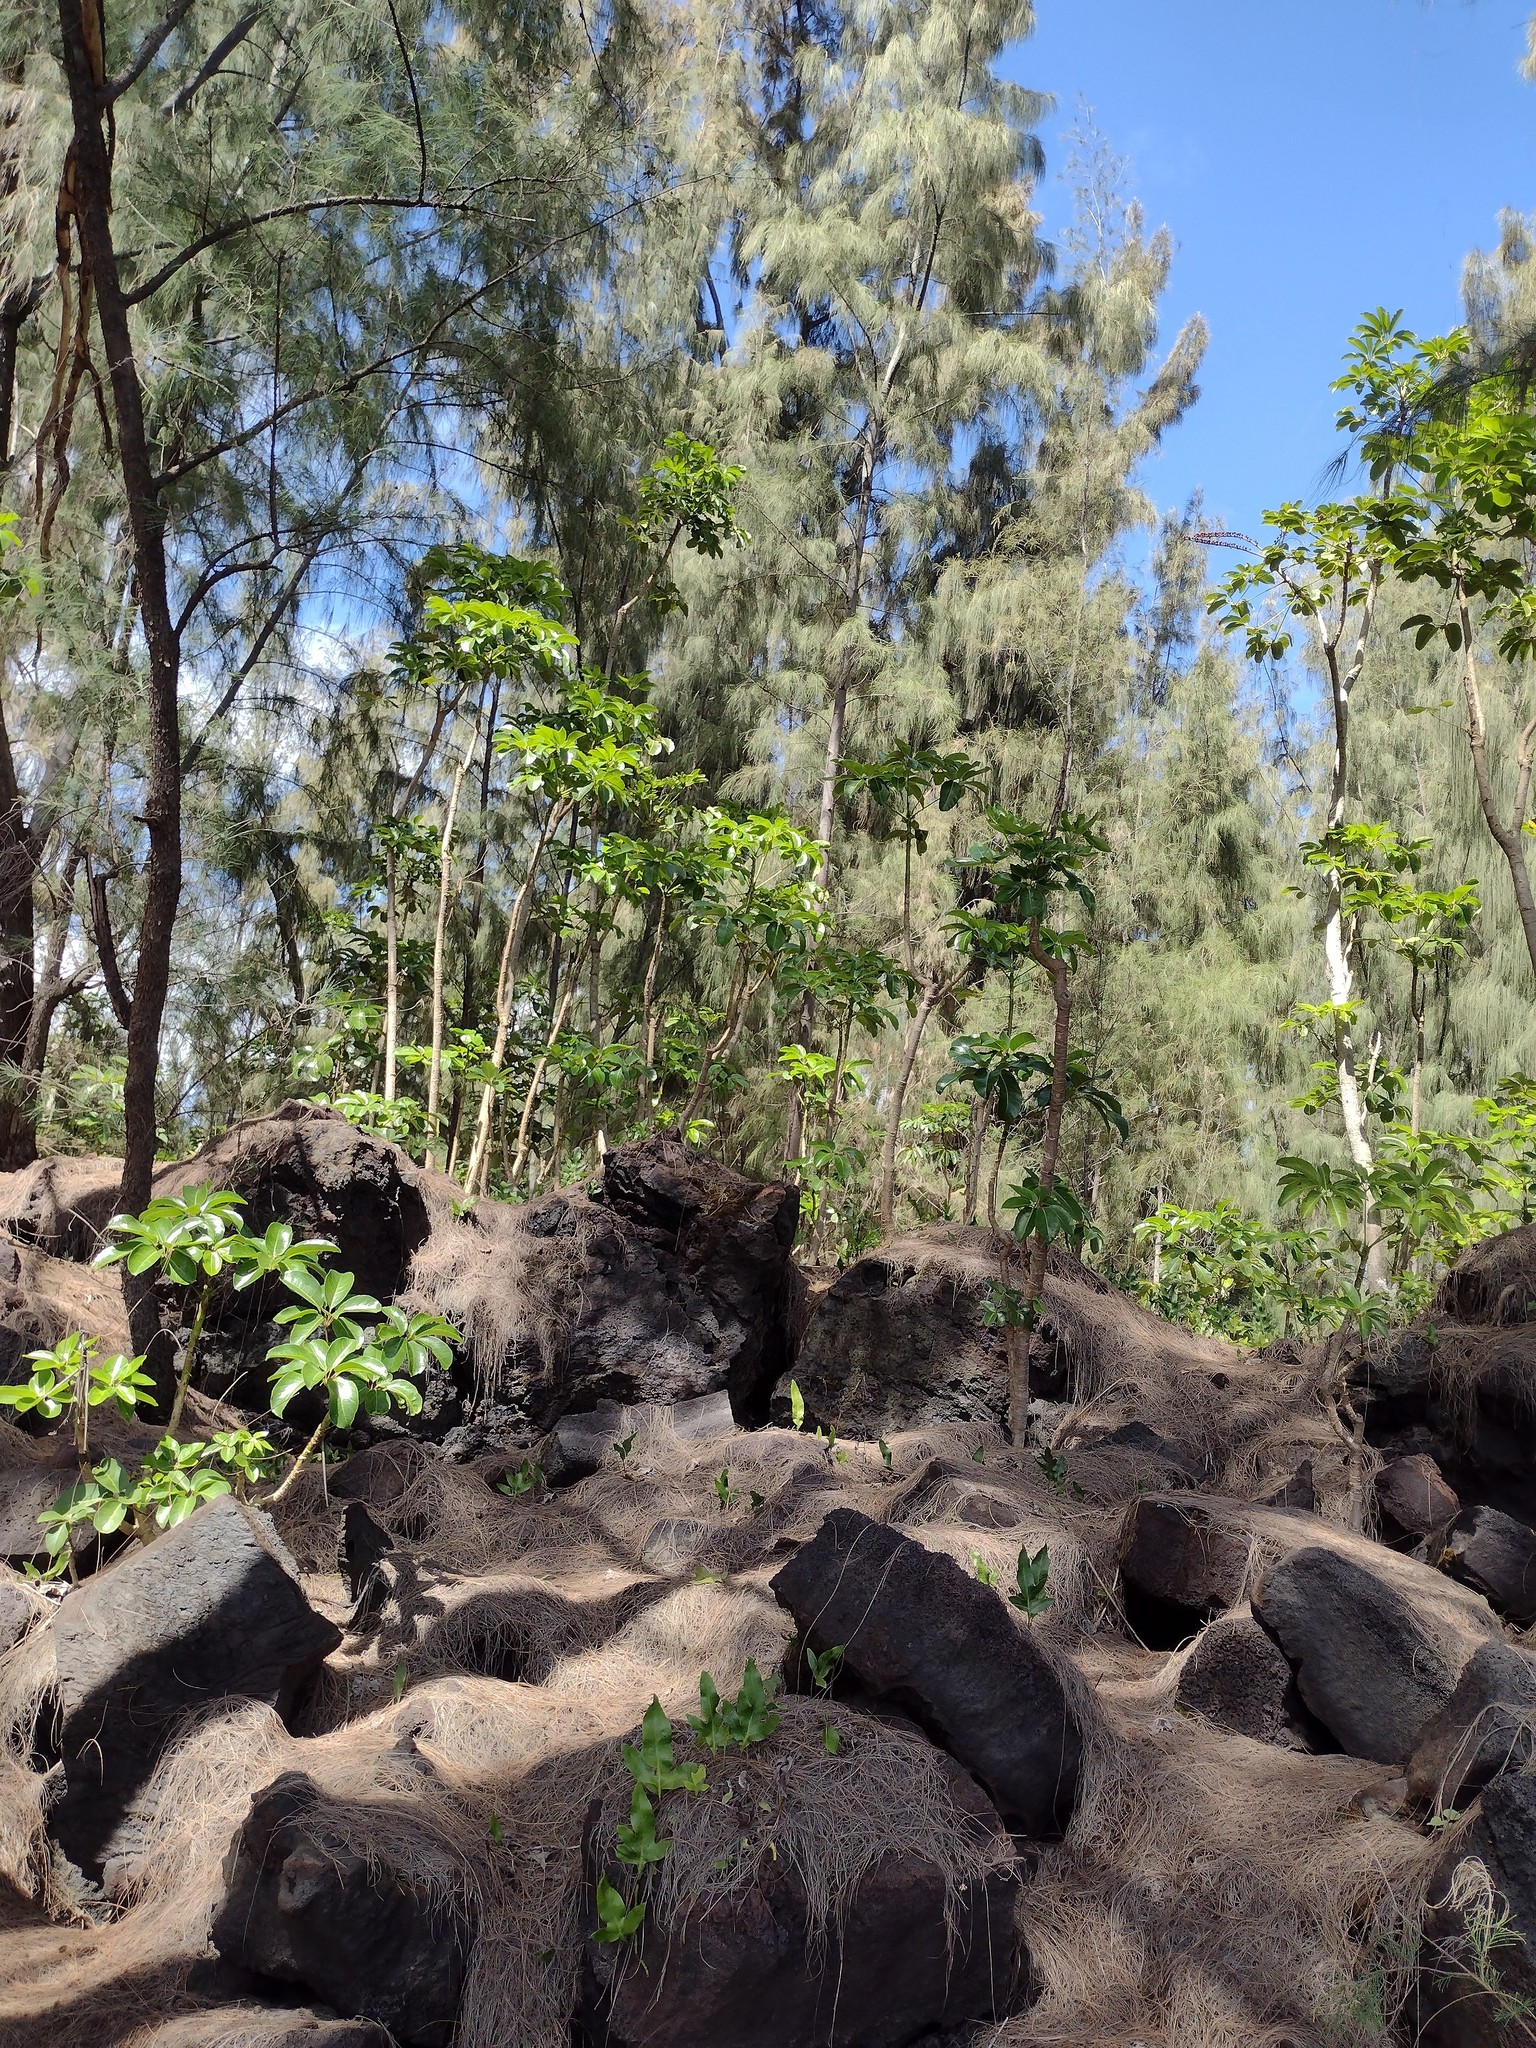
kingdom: Plantae
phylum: Tracheophyta
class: Magnoliopsida
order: Apiales
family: Araliaceae
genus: Heptapleurum
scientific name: Heptapleurum actinophyllum
